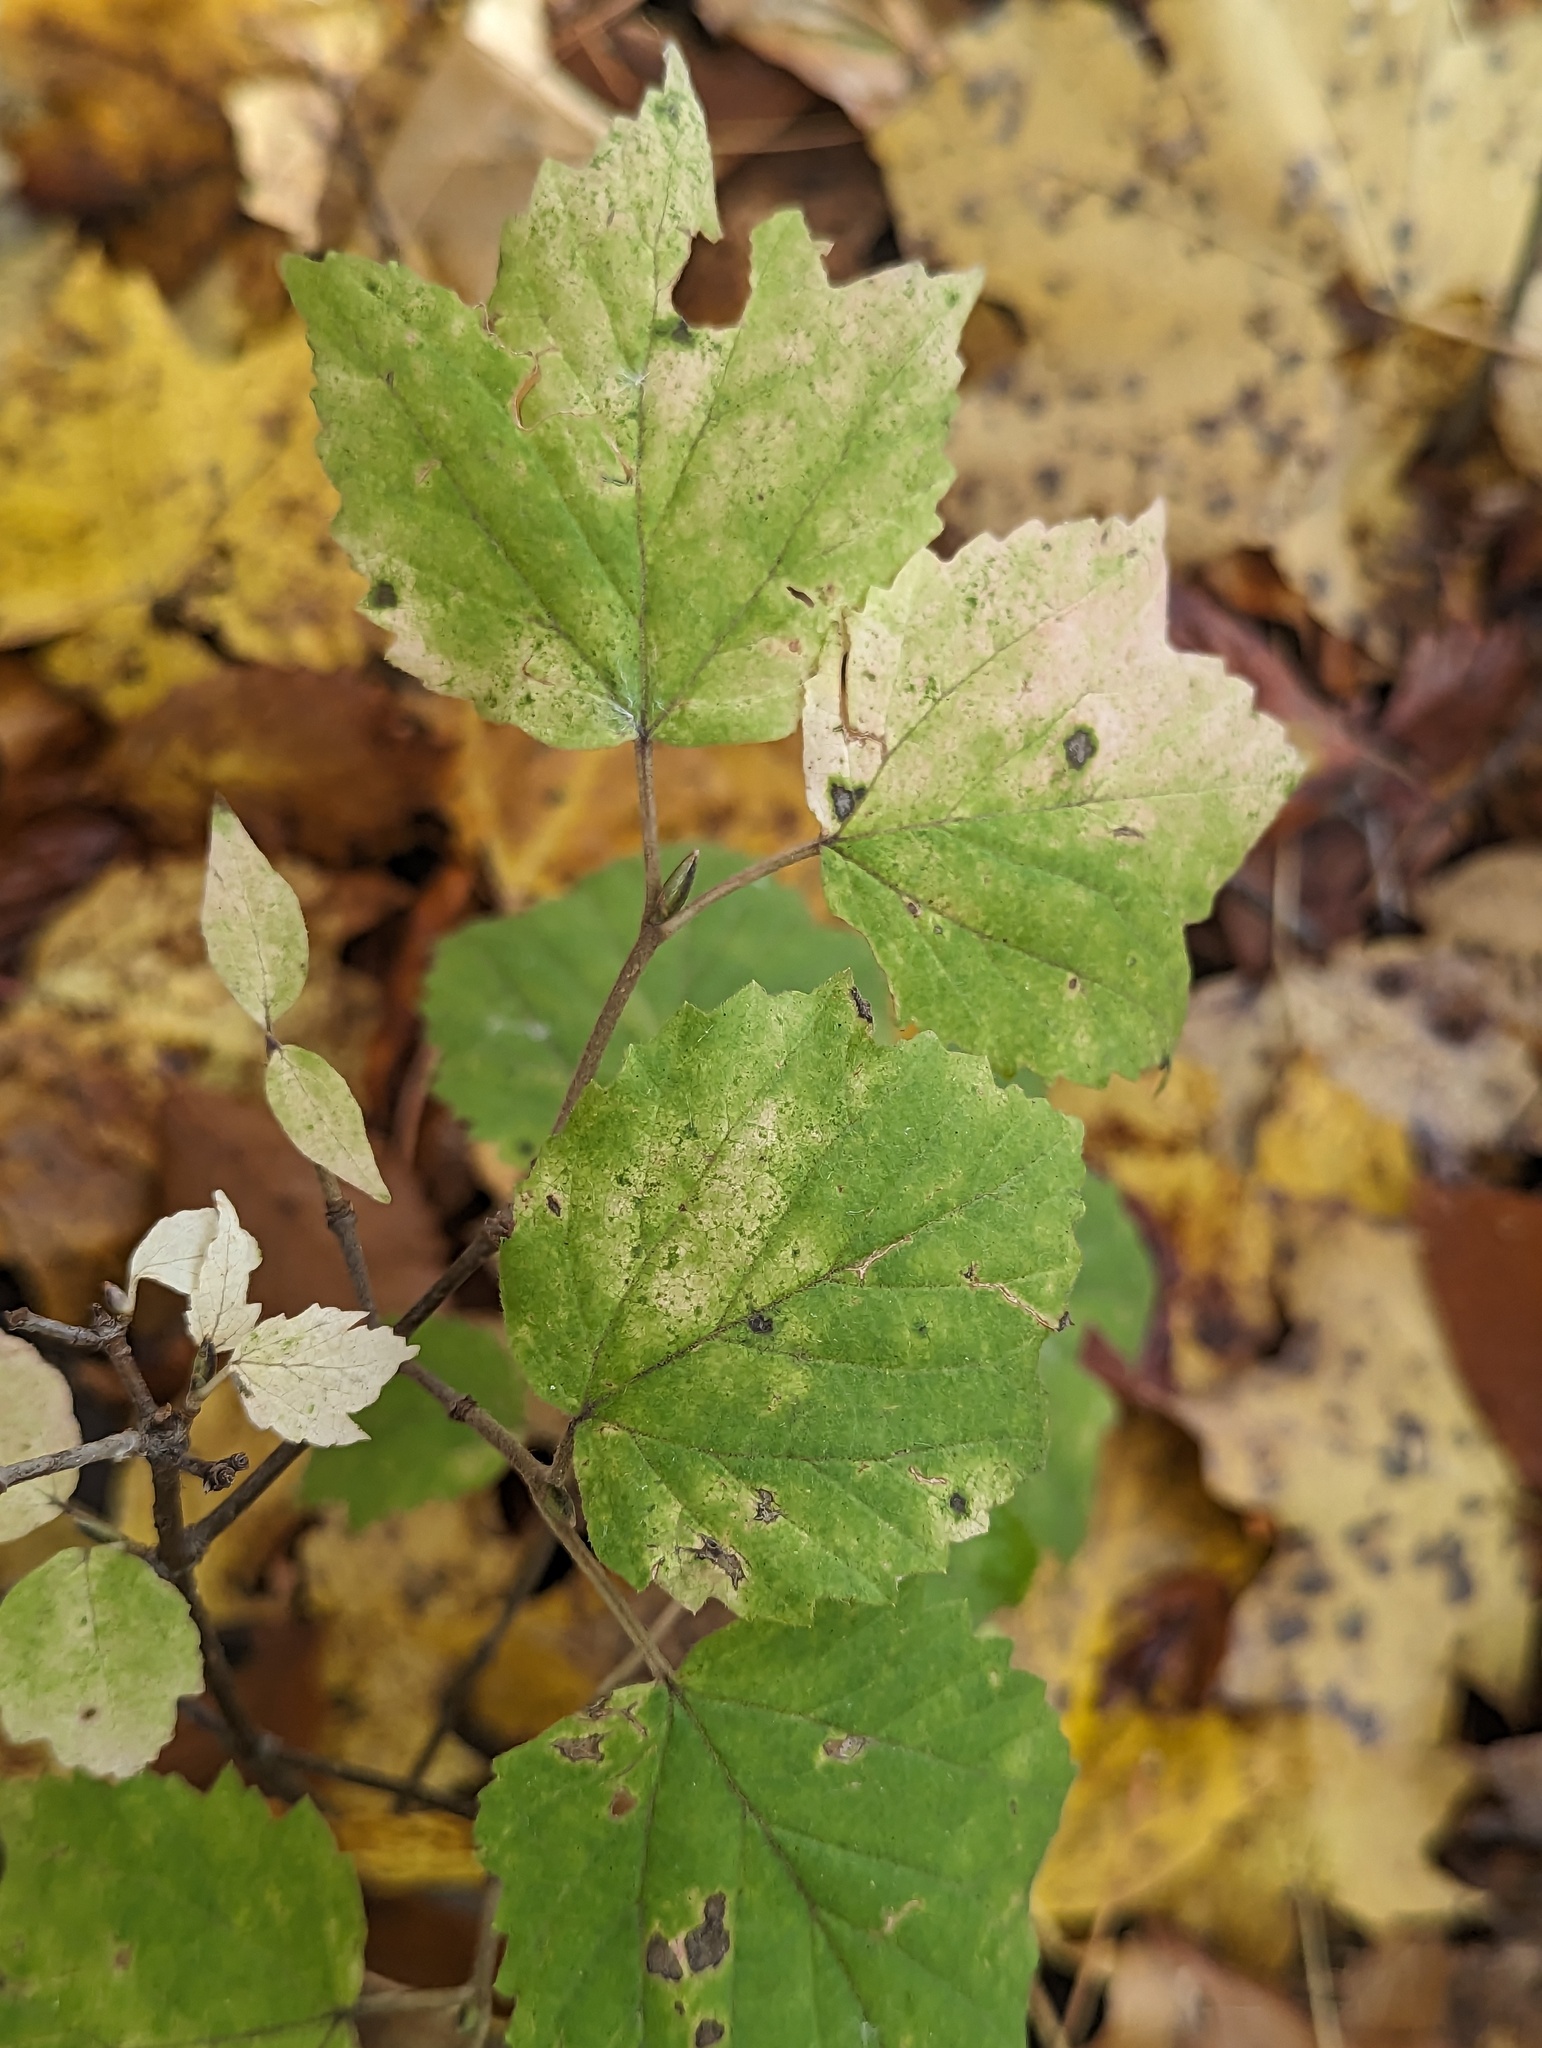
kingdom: Plantae
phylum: Tracheophyta
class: Magnoliopsida
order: Dipsacales
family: Viburnaceae
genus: Viburnum
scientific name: Viburnum acerifolium
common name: Dockmackie
